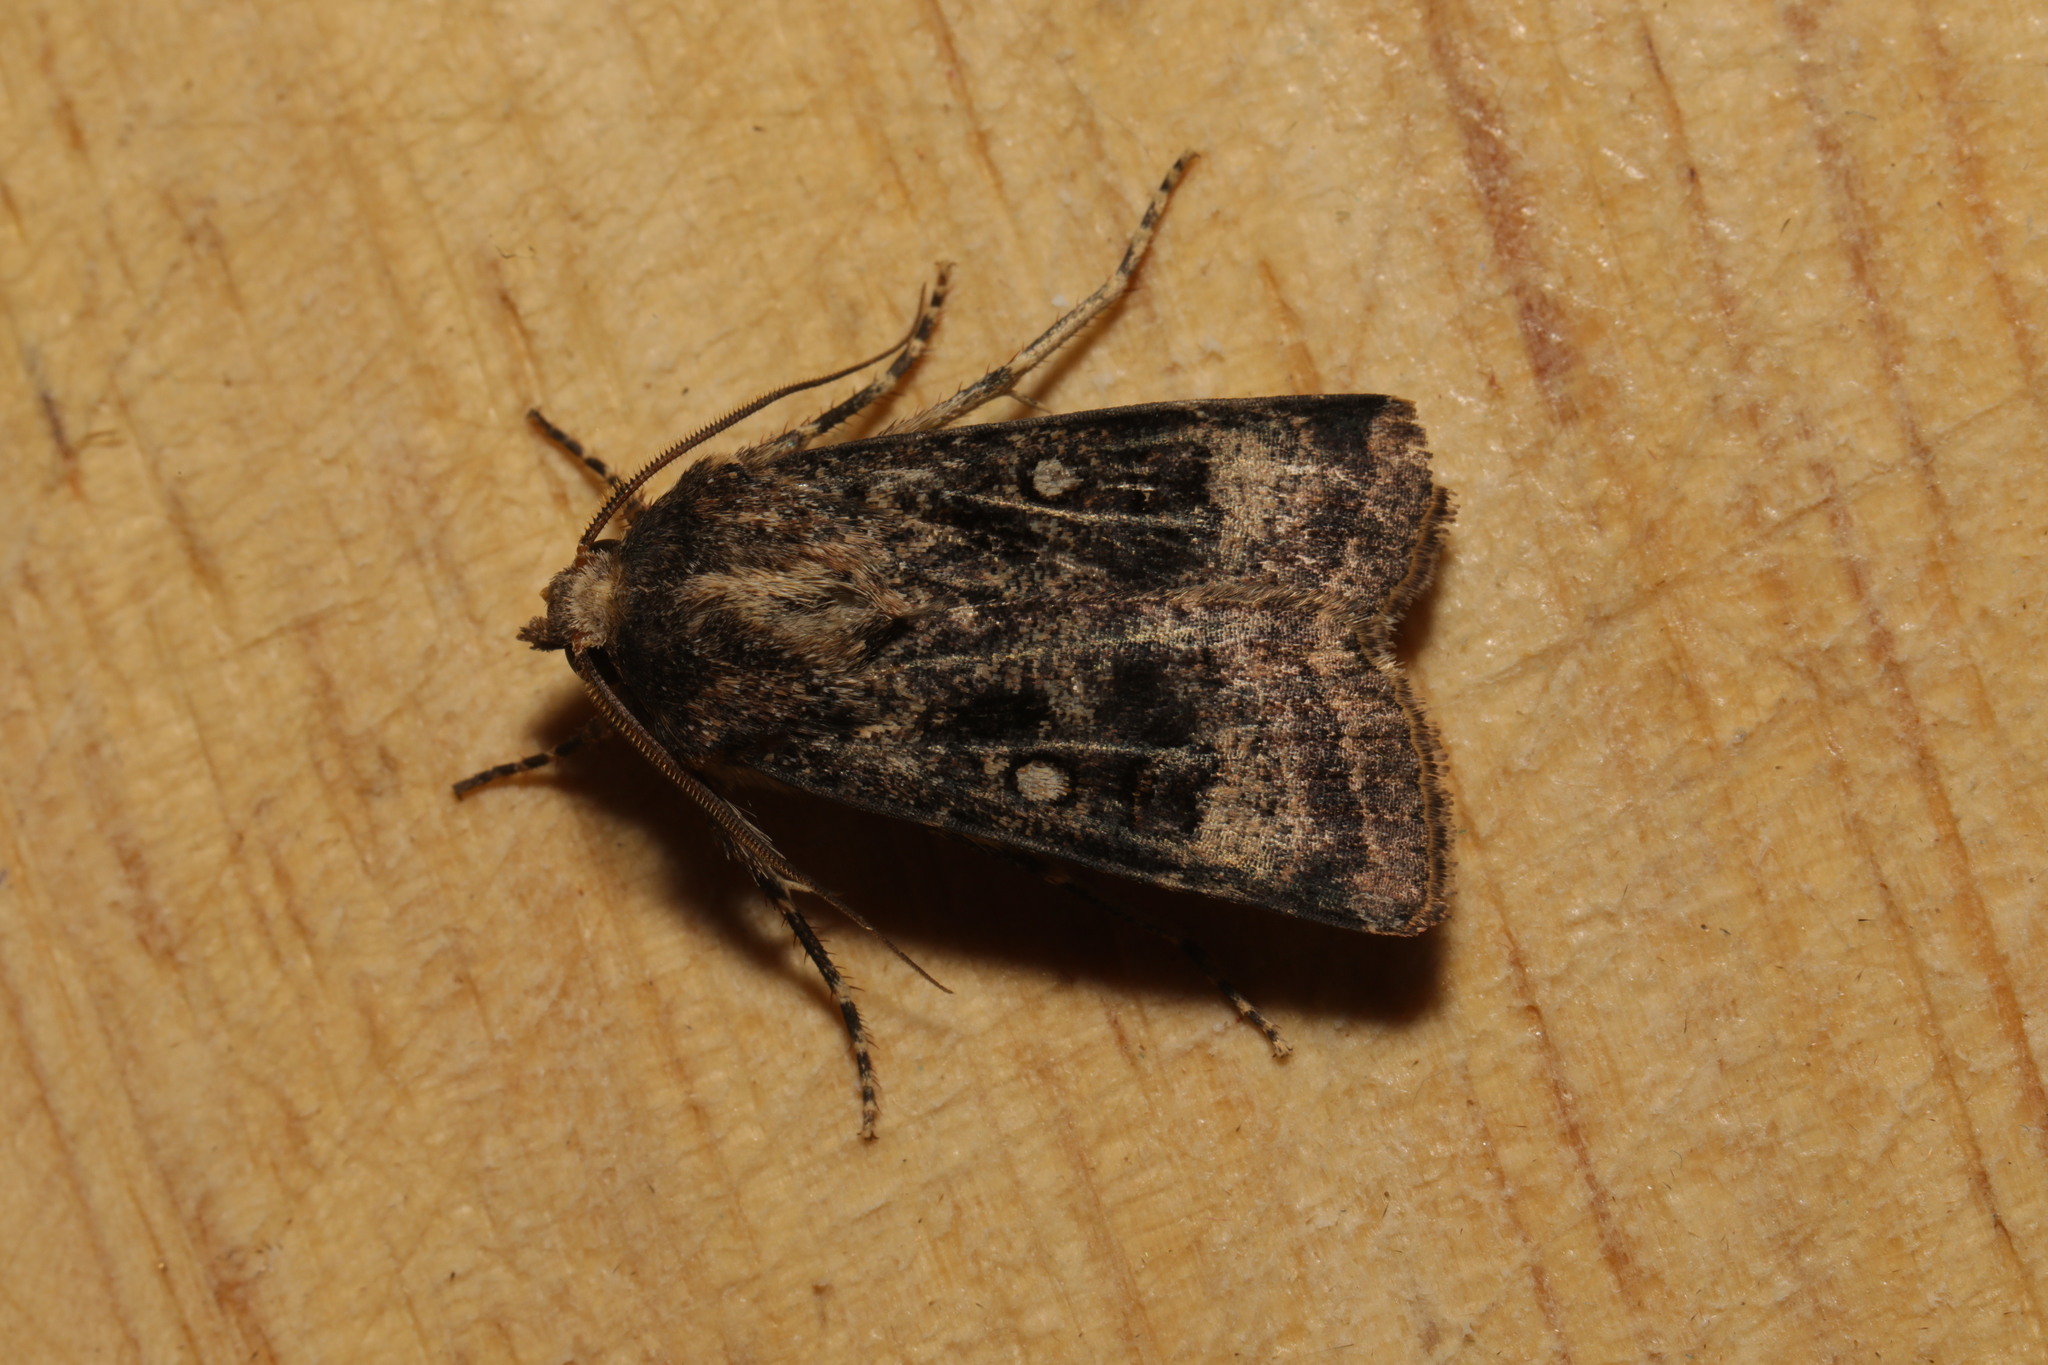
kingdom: Animalia
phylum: Arthropoda
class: Insecta
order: Lepidoptera
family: Noctuidae
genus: Agrotis
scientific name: Agrotis trux
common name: Crescent dart
